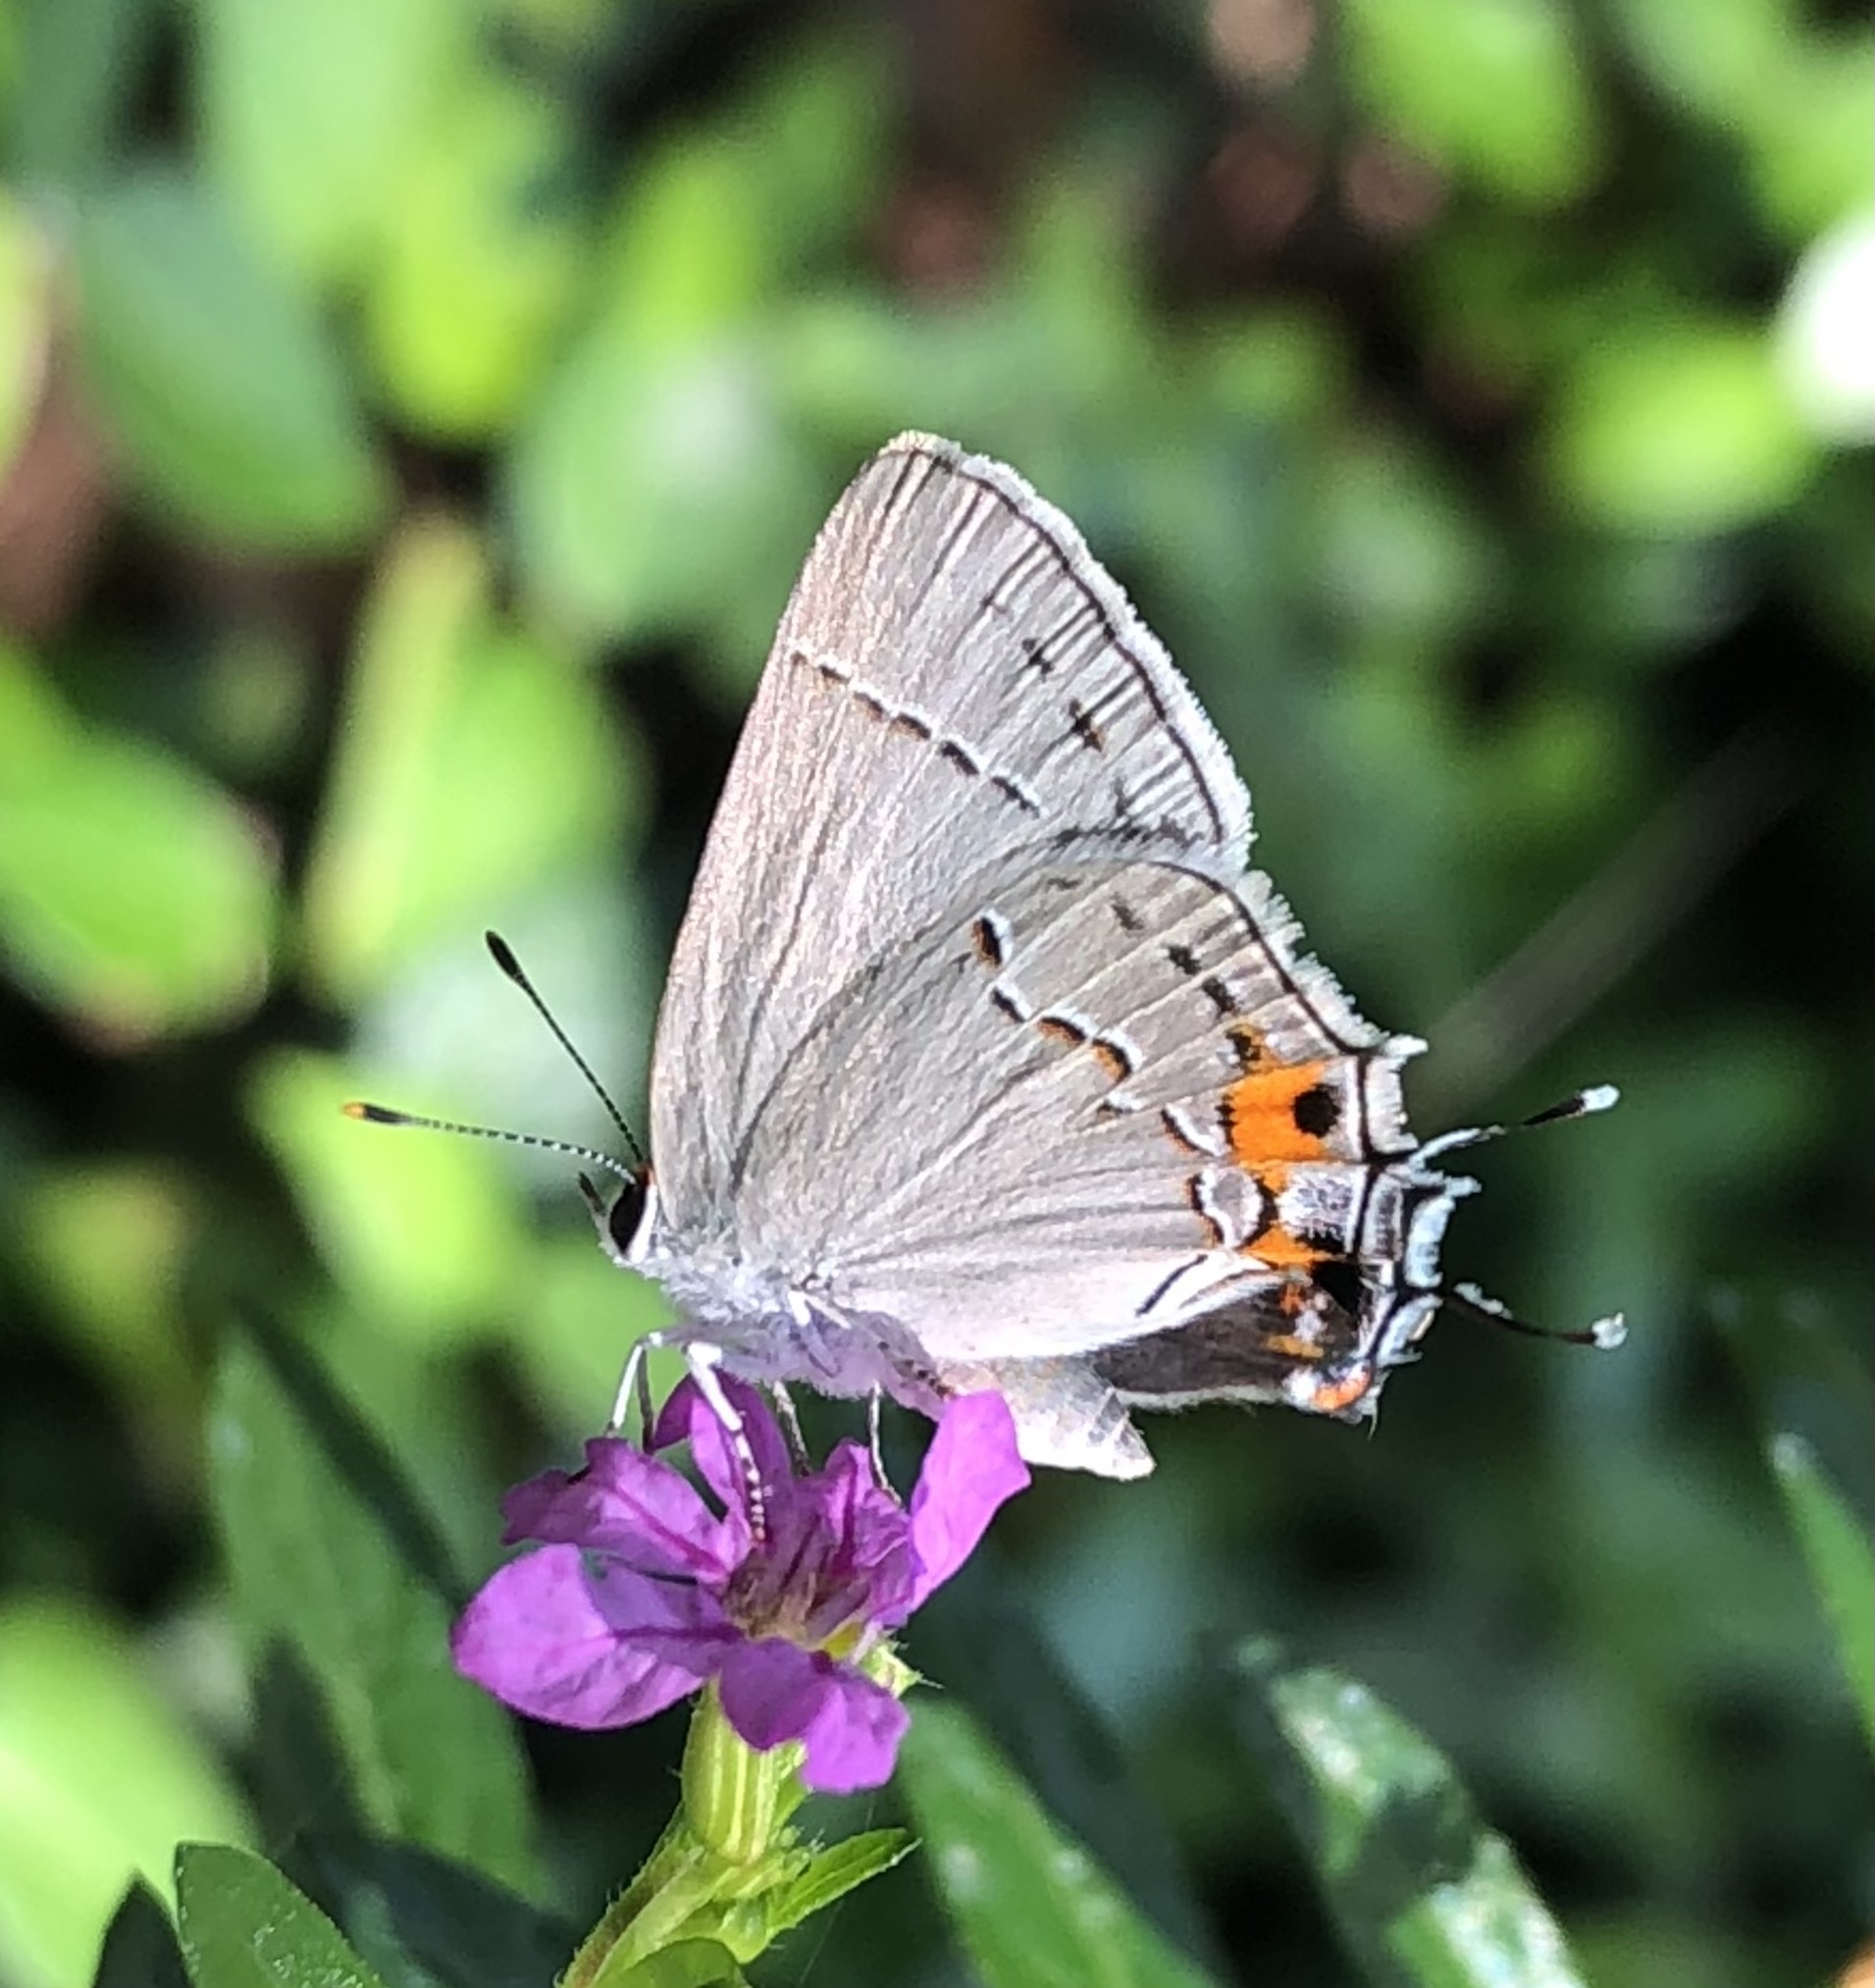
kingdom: Animalia
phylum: Arthropoda
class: Insecta
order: Lepidoptera
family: Lycaenidae
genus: Strymon
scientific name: Strymon melinus
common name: Gray hairstreak
